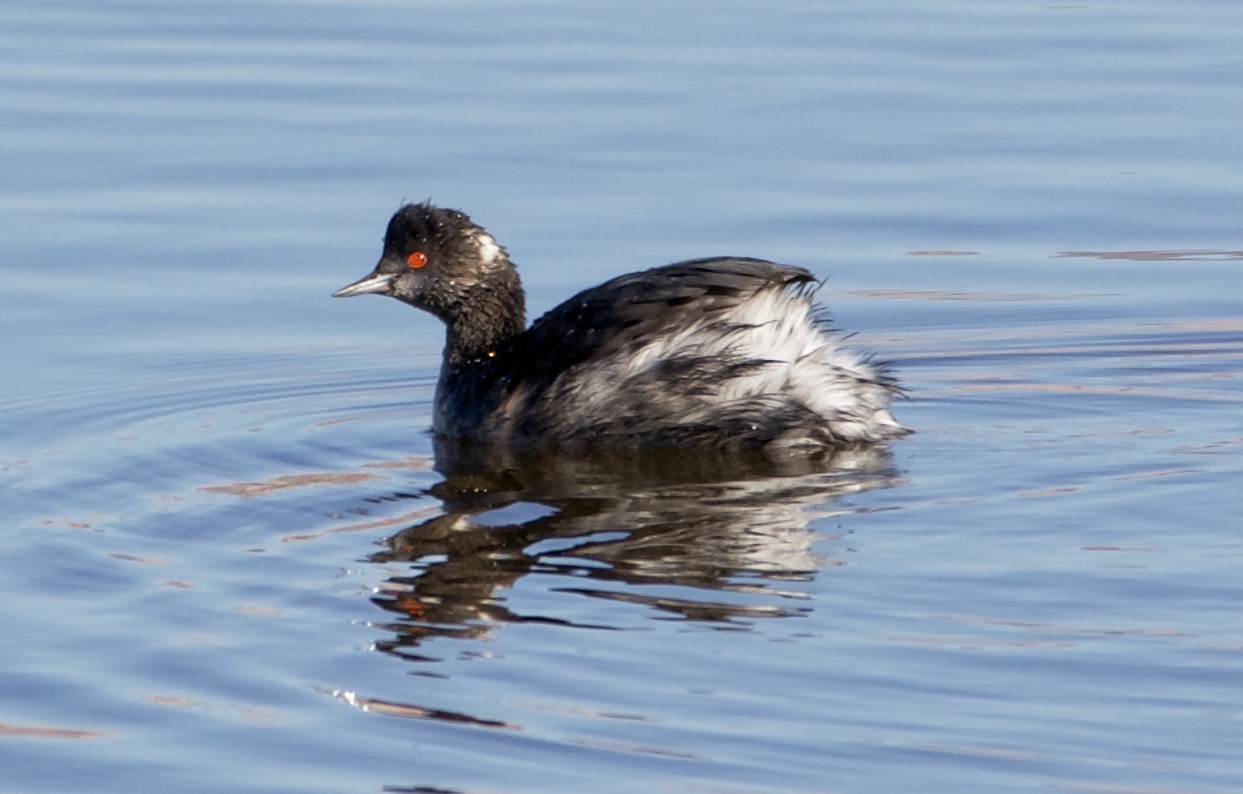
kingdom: Animalia
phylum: Chordata
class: Aves
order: Podicipediformes
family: Podicipedidae
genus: Podiceps
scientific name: Podiceps nigricollis
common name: Black-necked grebe
